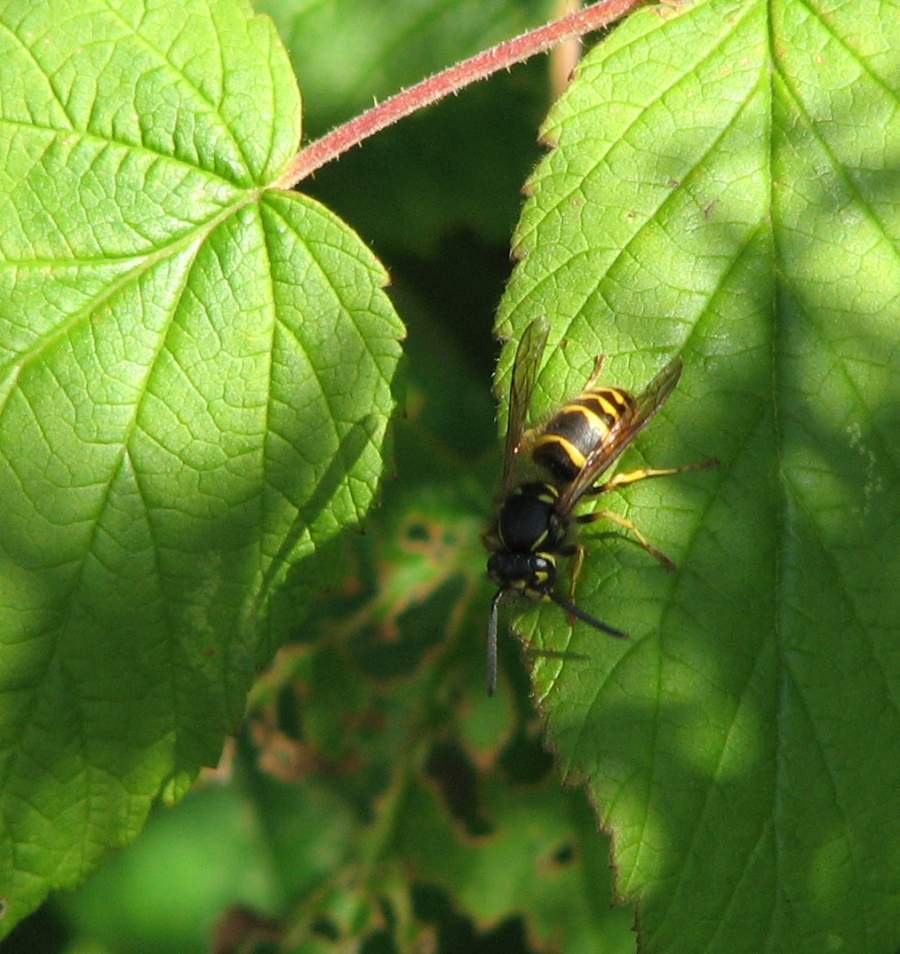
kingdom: Animalia
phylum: Arthropoda
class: Insecta
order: Hymenoptera
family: Vespidae
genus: Vespula
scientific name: Vespula alascensis
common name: Alaska yellowjacket
